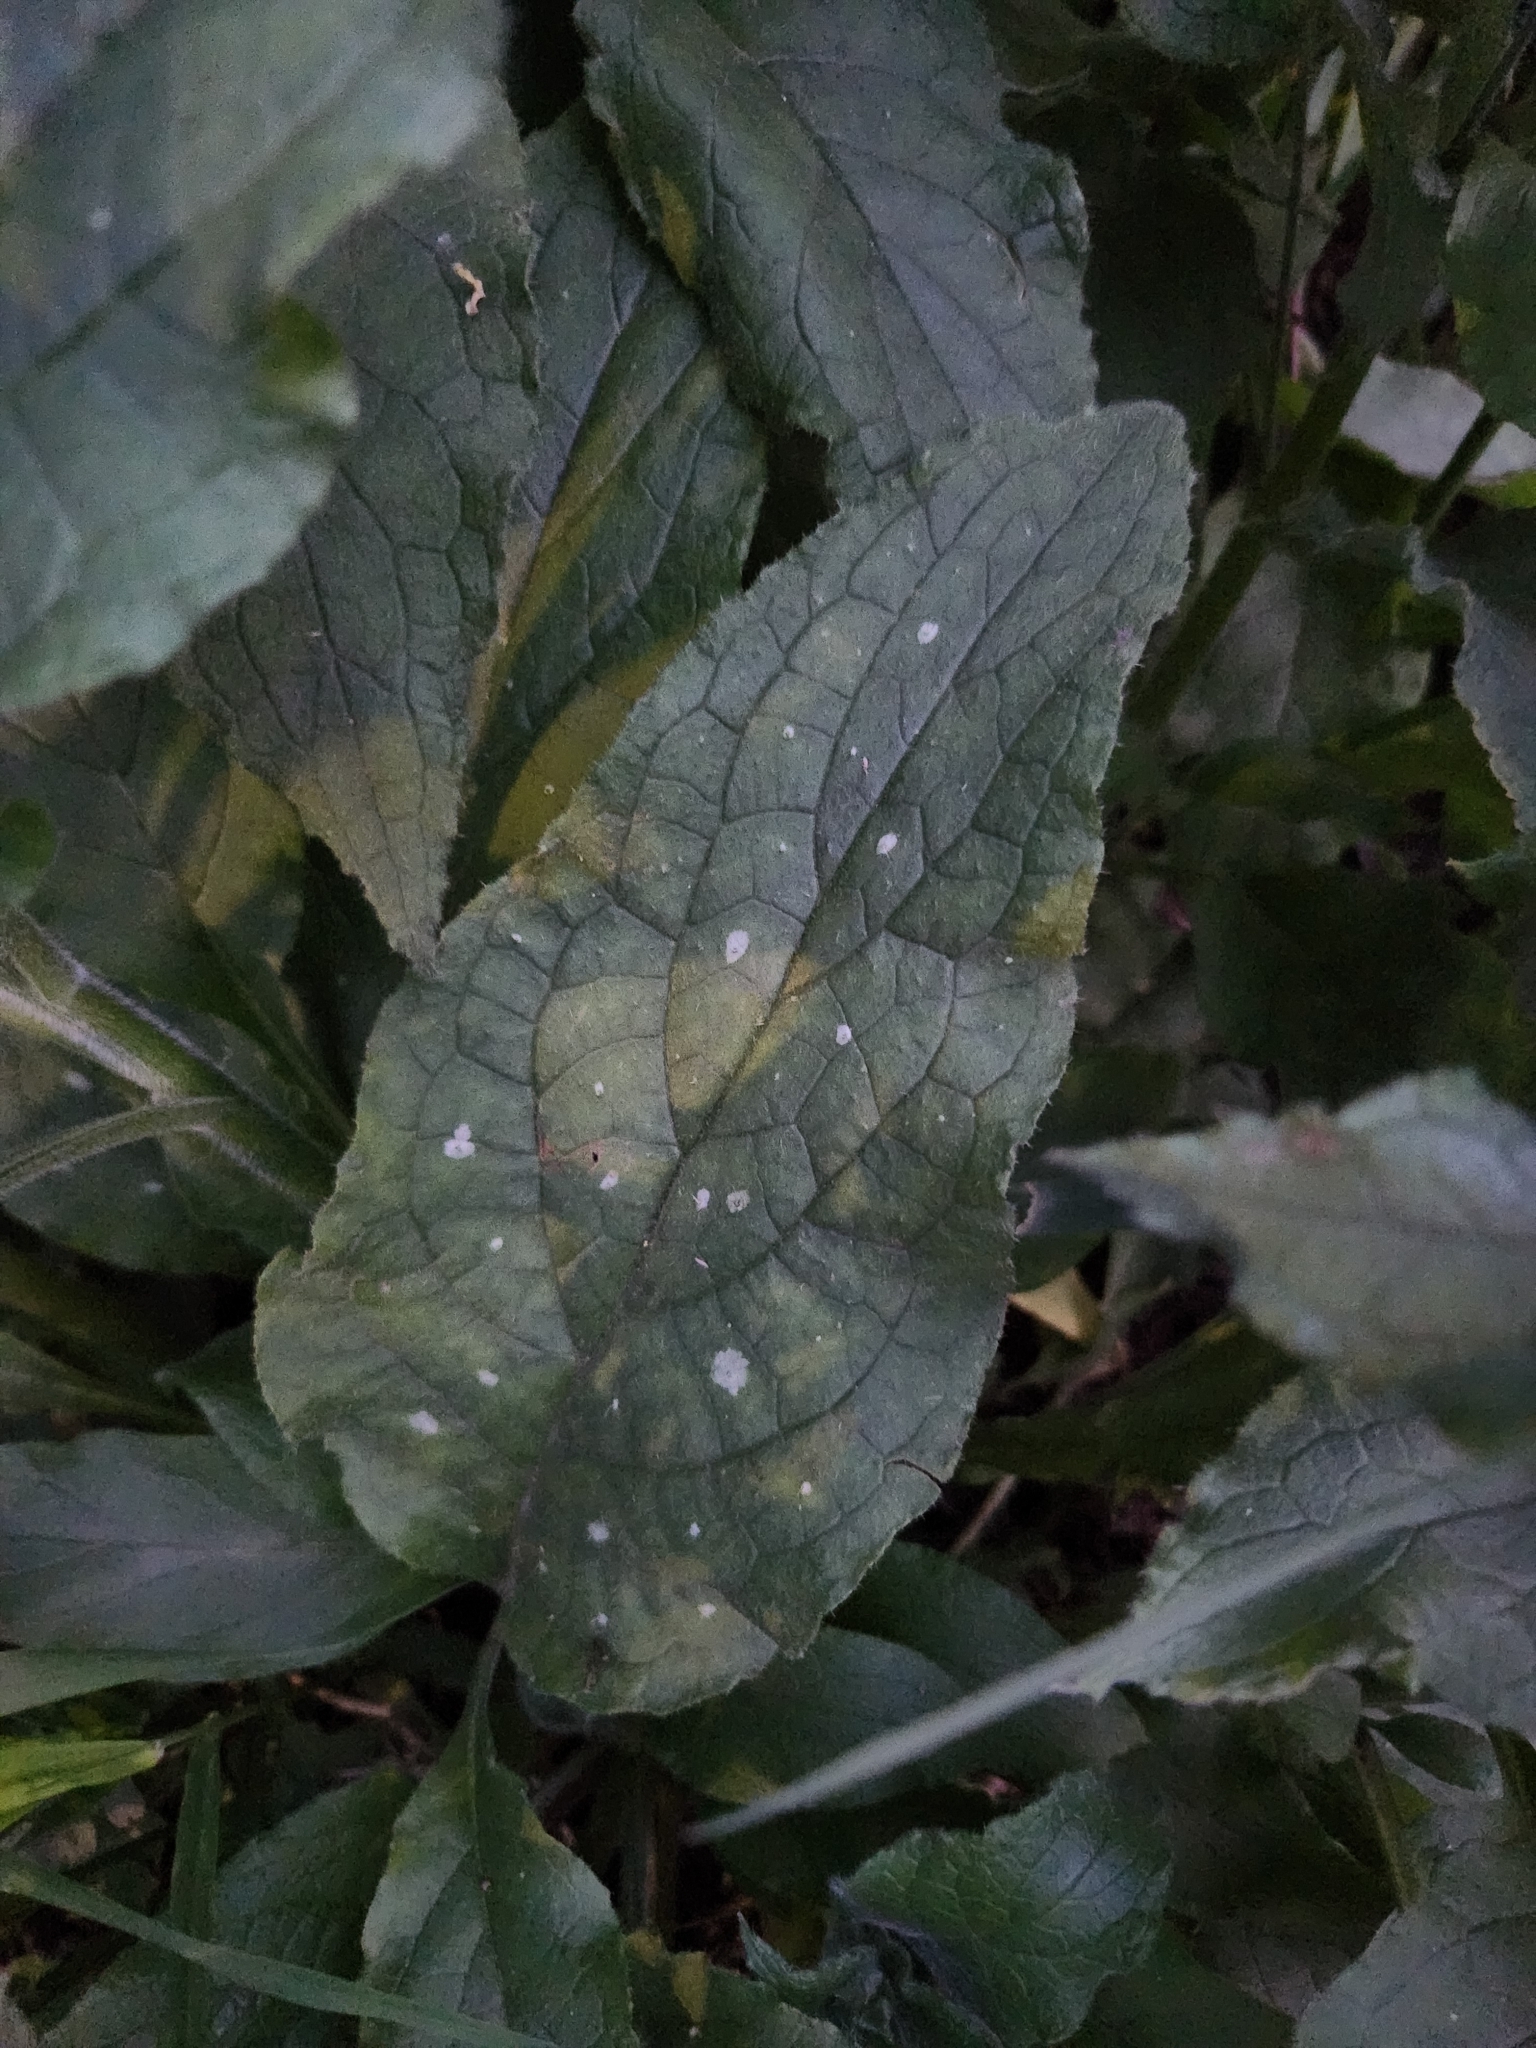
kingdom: Plantae
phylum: Tracheophyta
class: Magnoliopsida
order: Boraginales
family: Boraginaceae
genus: Pentaglottis
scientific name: Pentaglottis sempervirens
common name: Green alkanet
